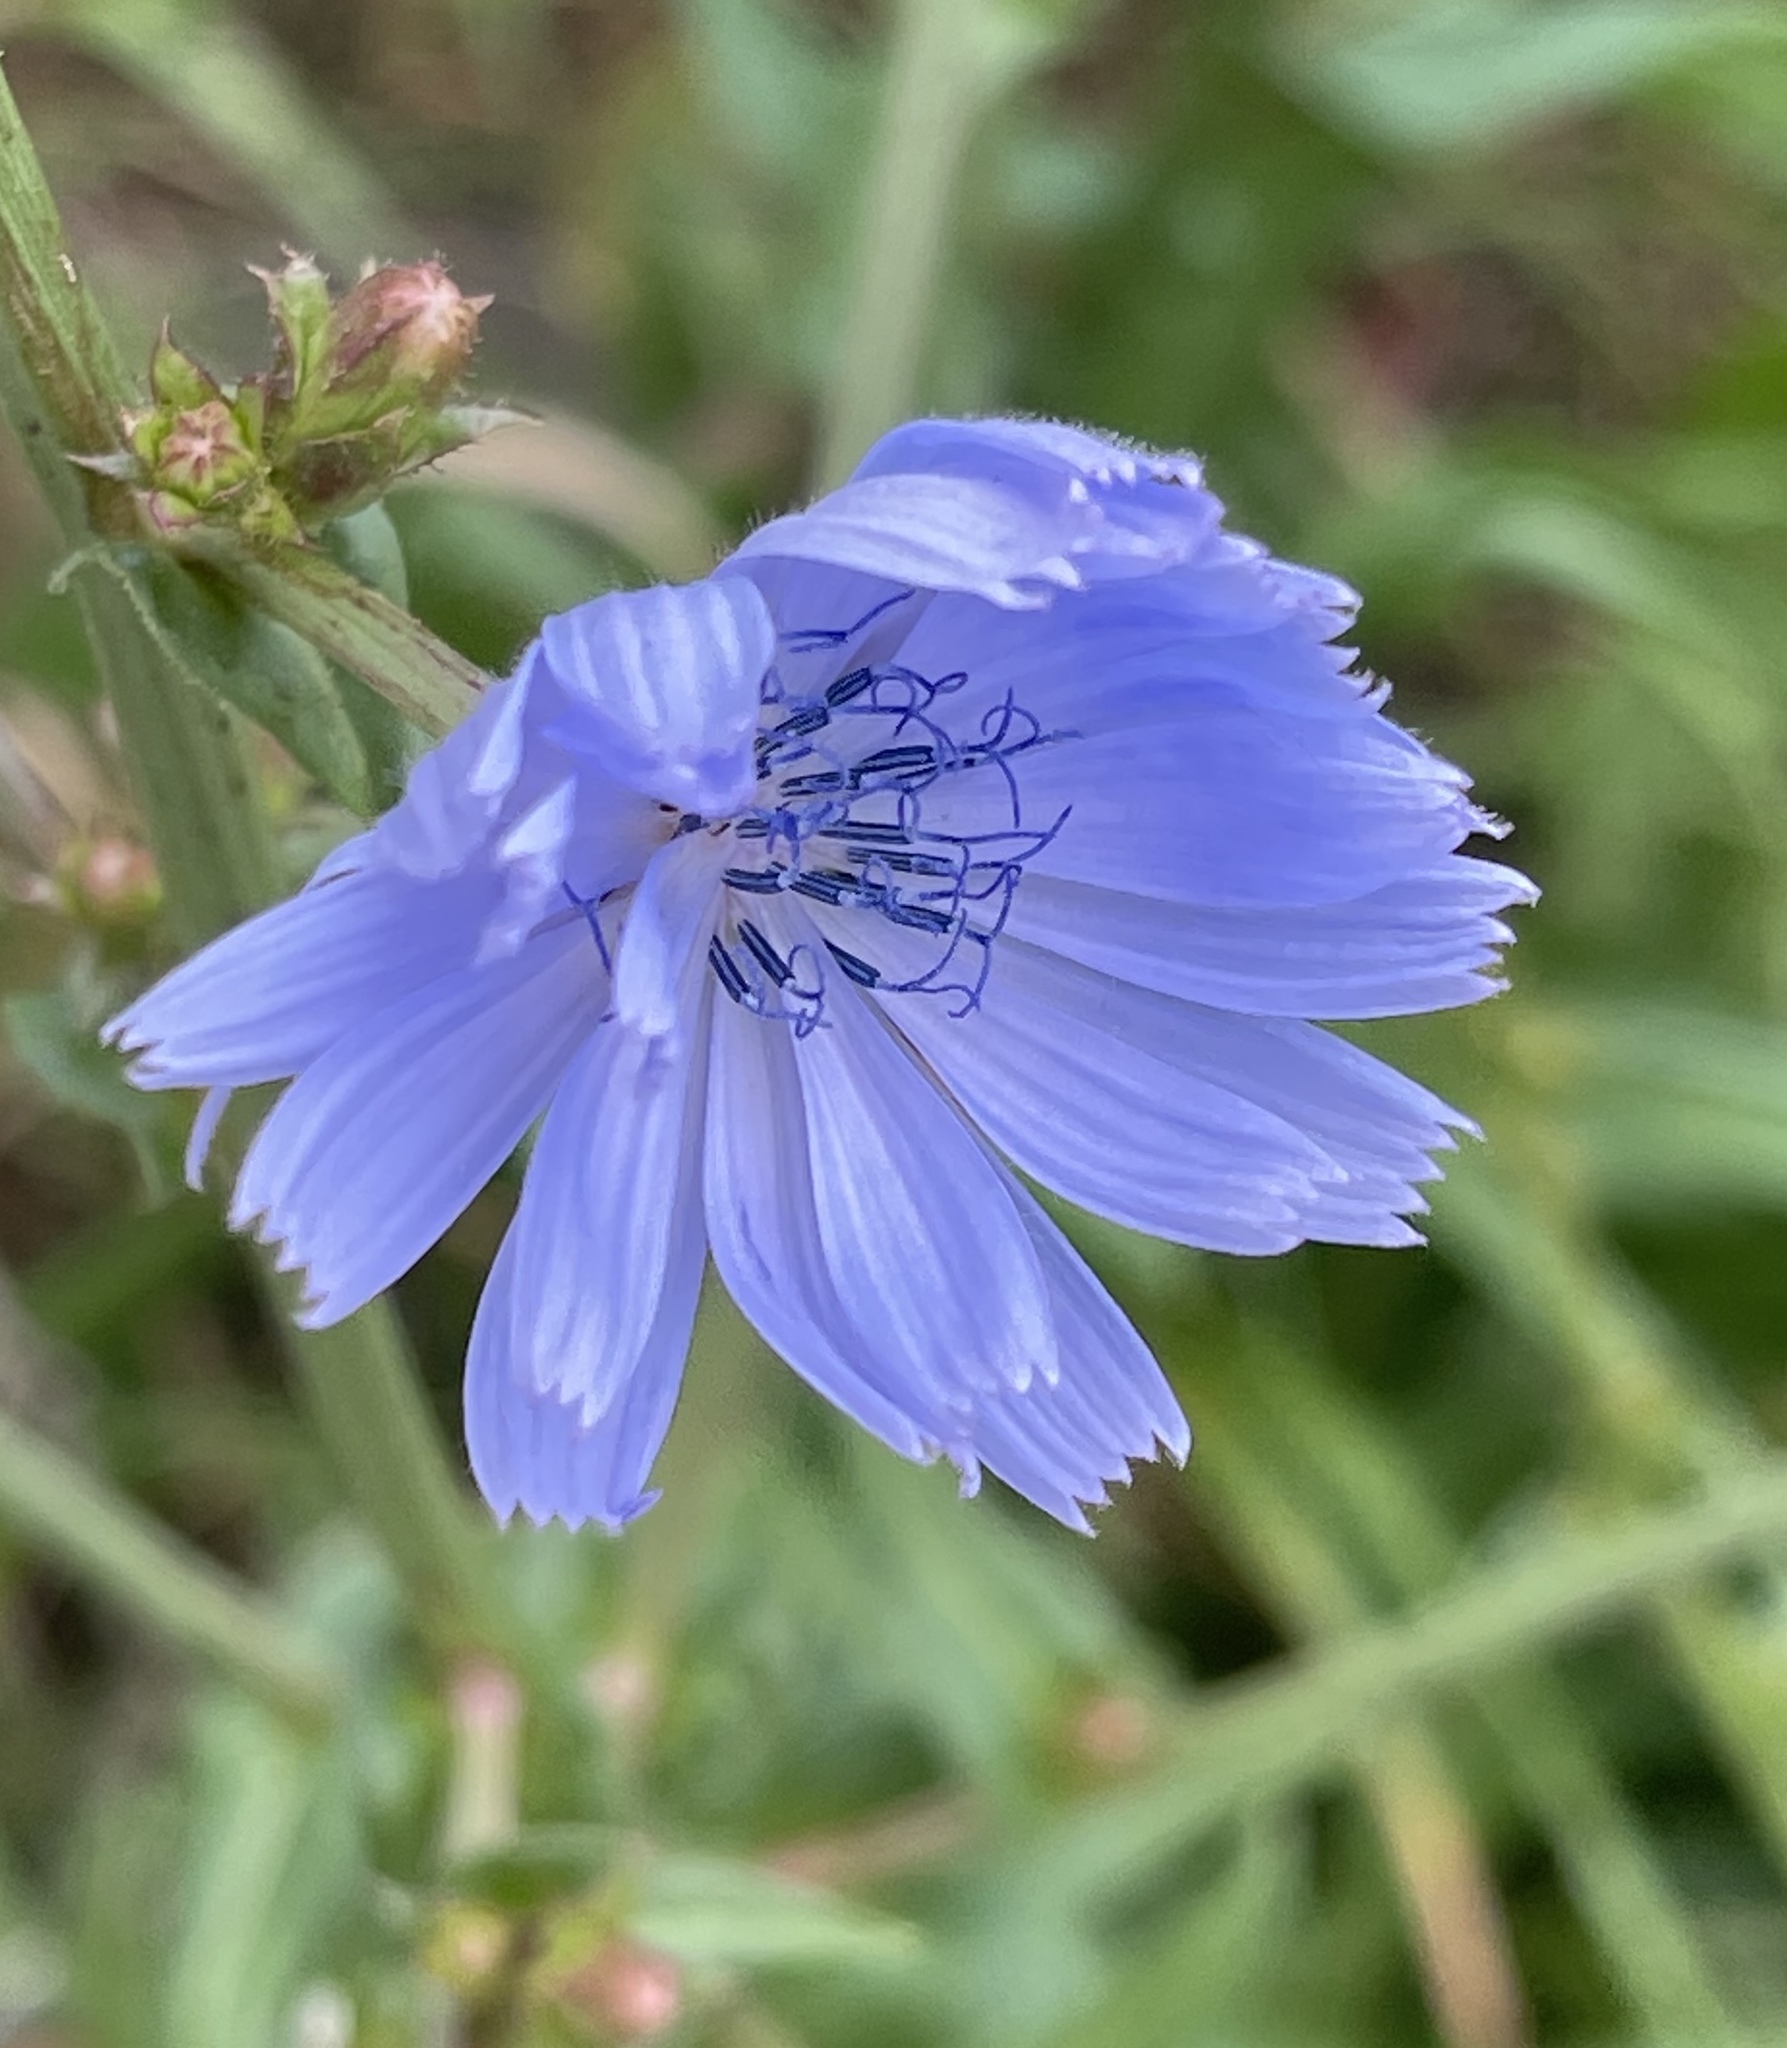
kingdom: Plantae
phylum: Tracheophyta
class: Magnoliopsida
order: Asterales
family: Asteraceae
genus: Cichorium
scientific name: Cichorium intybus
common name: Chicory
